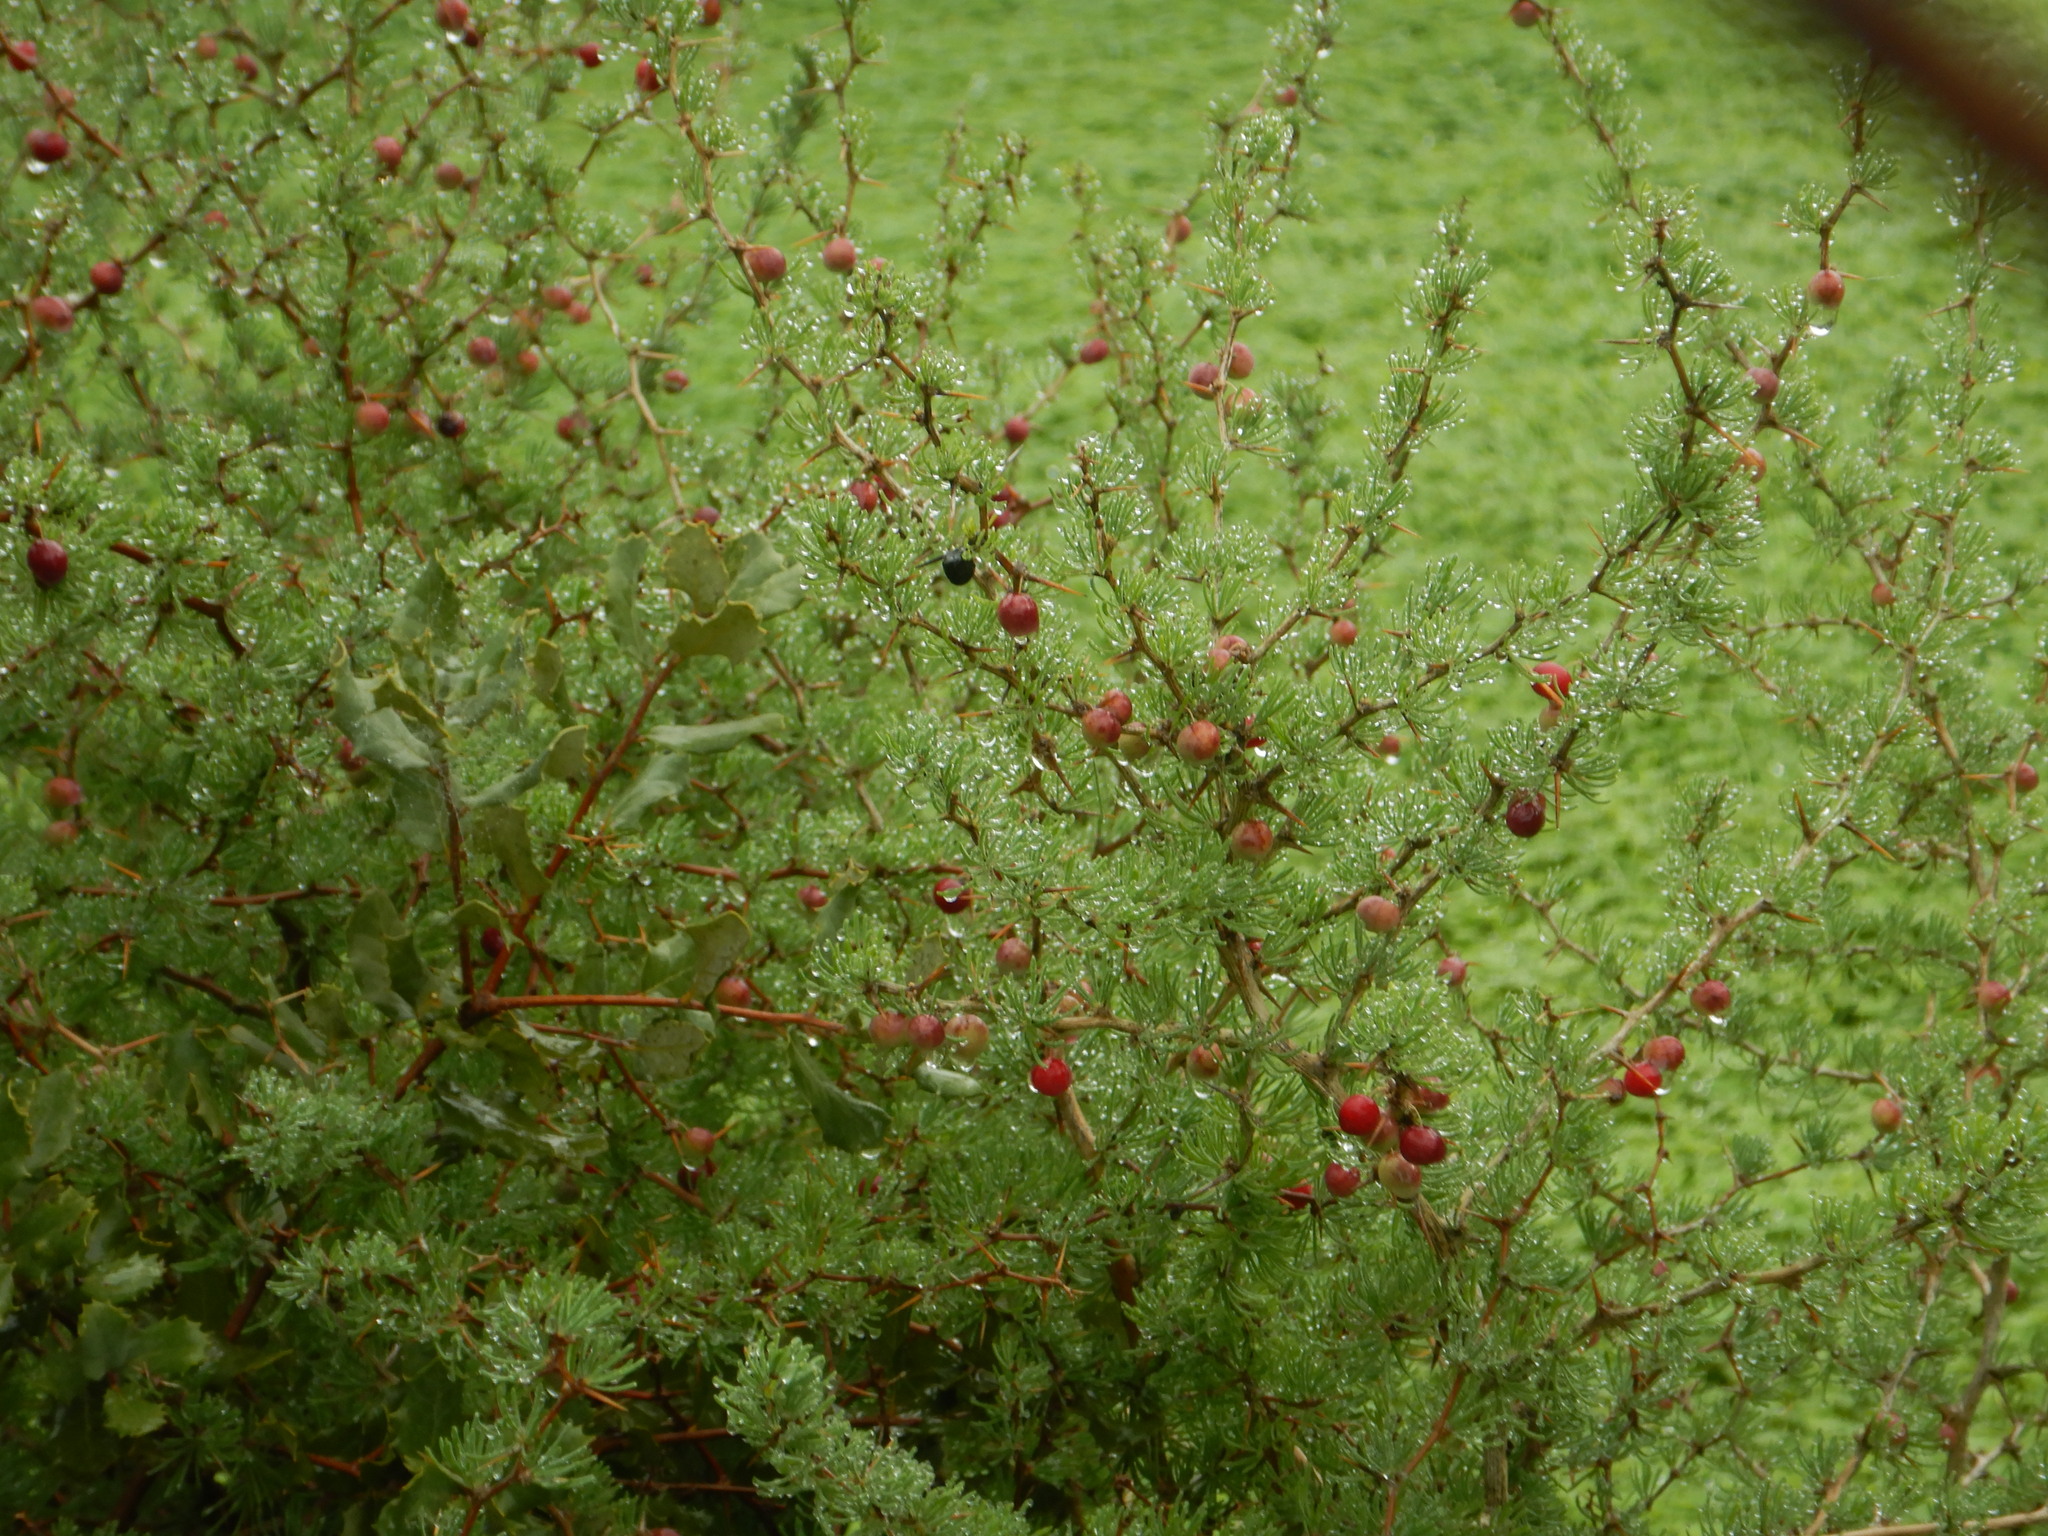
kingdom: Plantae
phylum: Tracheophyta
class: Liliopsida
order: Asparagales
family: Asparagaceae
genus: Asparagus
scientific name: Asparagus albus
